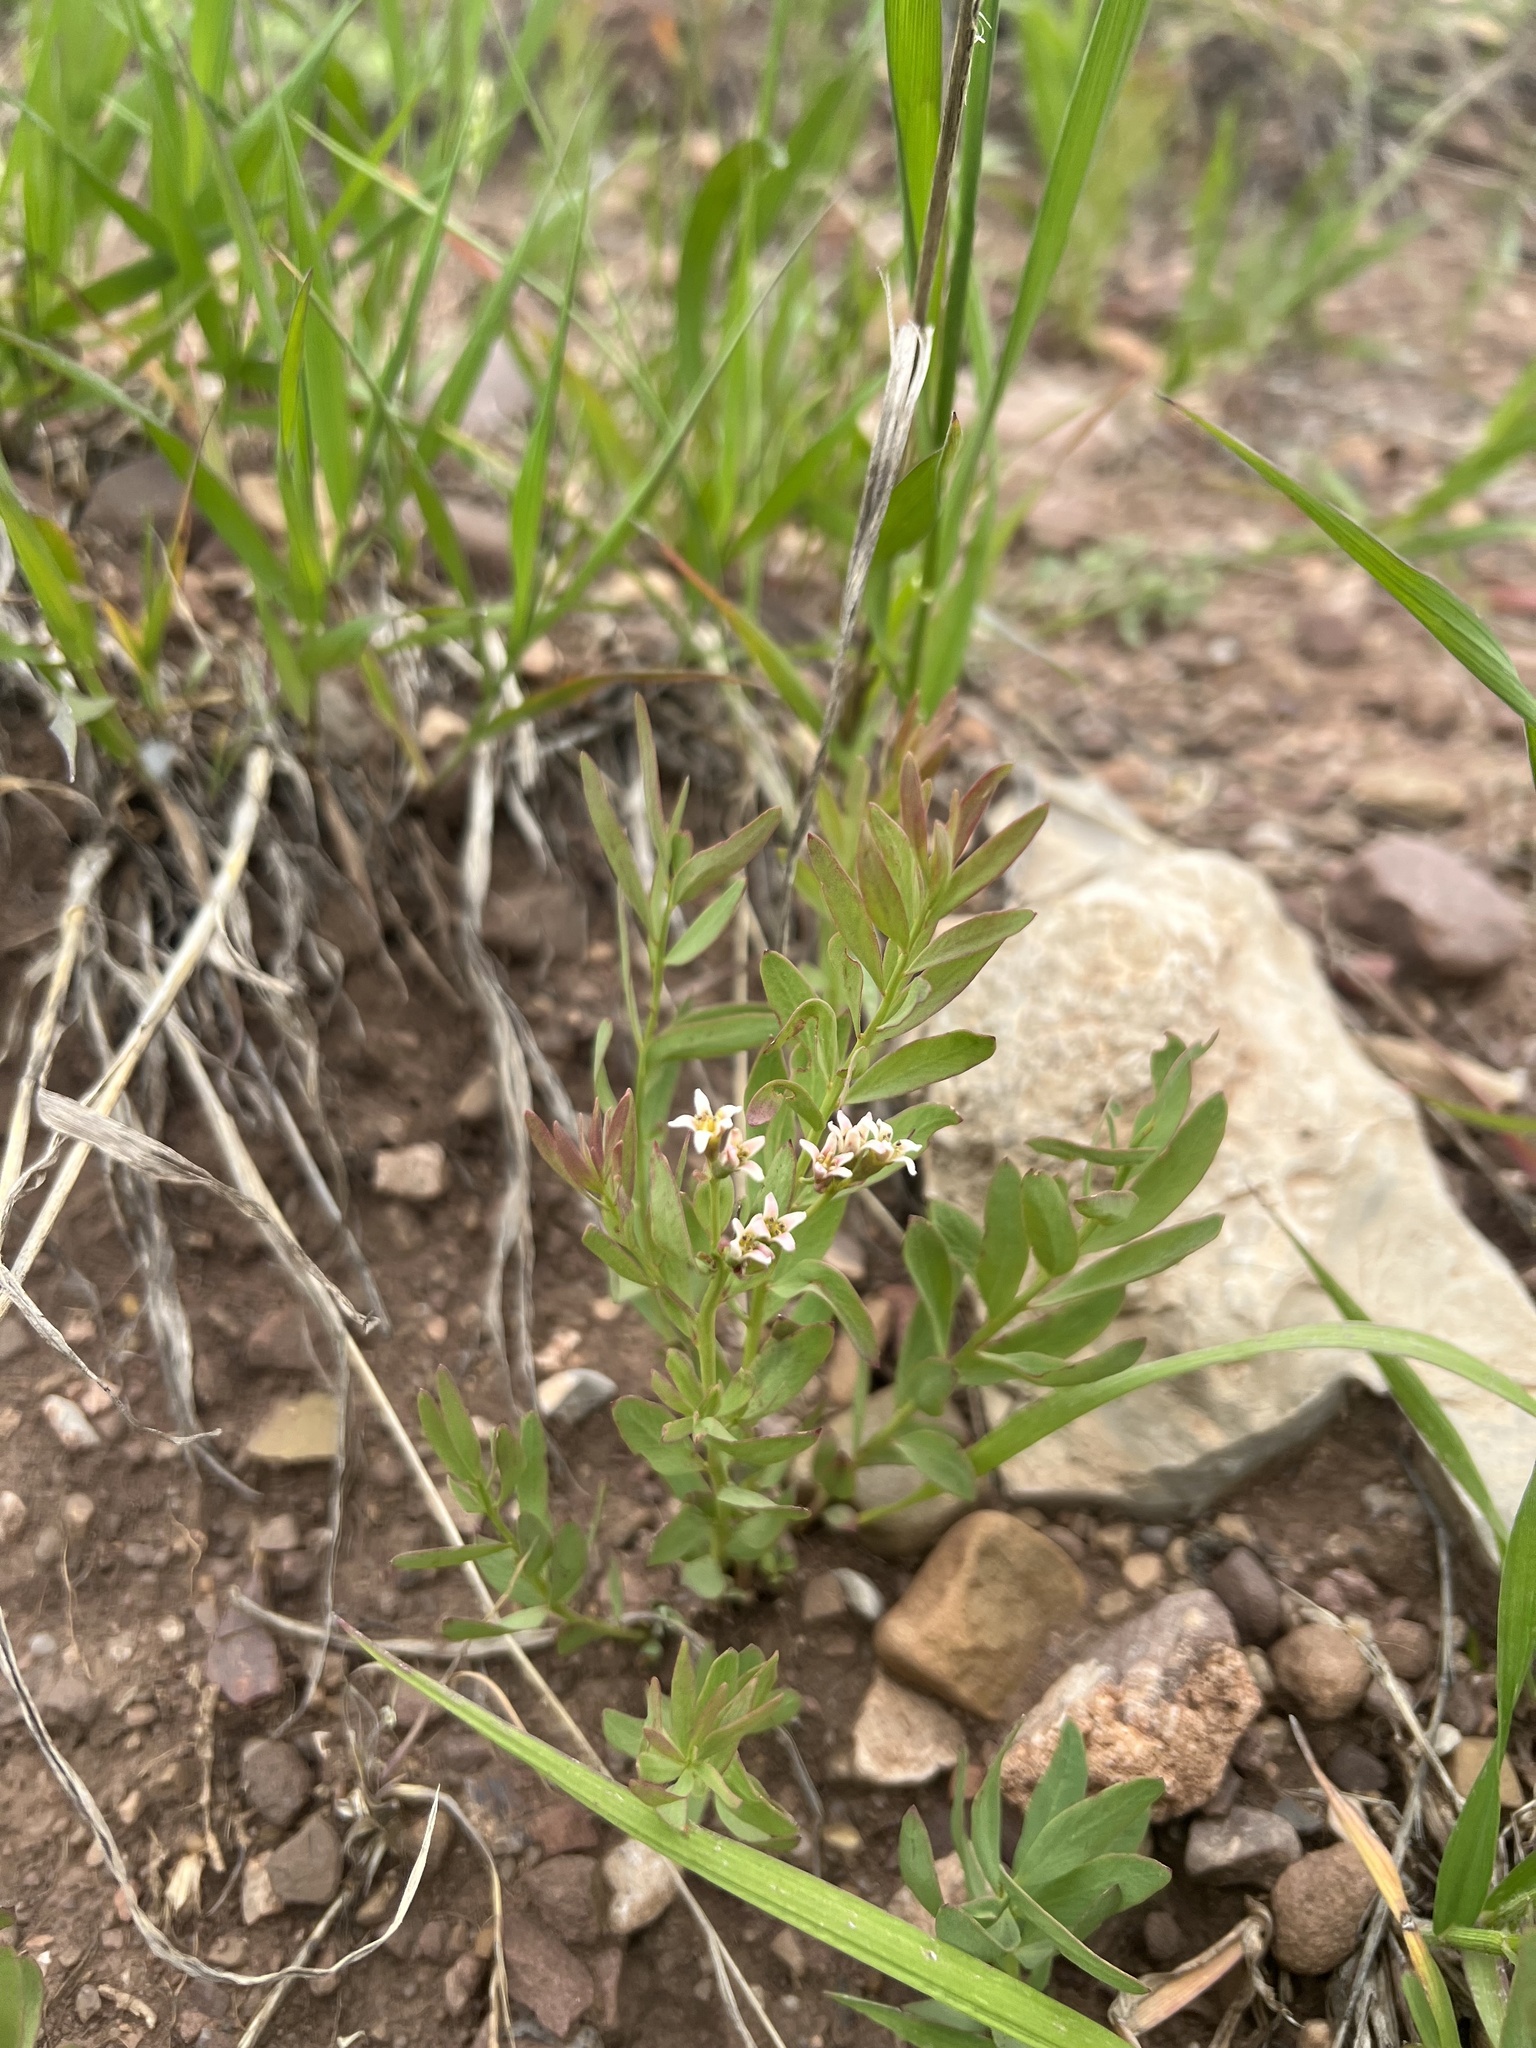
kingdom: Plantae
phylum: Tracheophyta
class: Magnoliopsida
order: Santalales
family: Comandraceae
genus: Comandra
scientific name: Comandra umbellata
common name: Bastard toadflax
